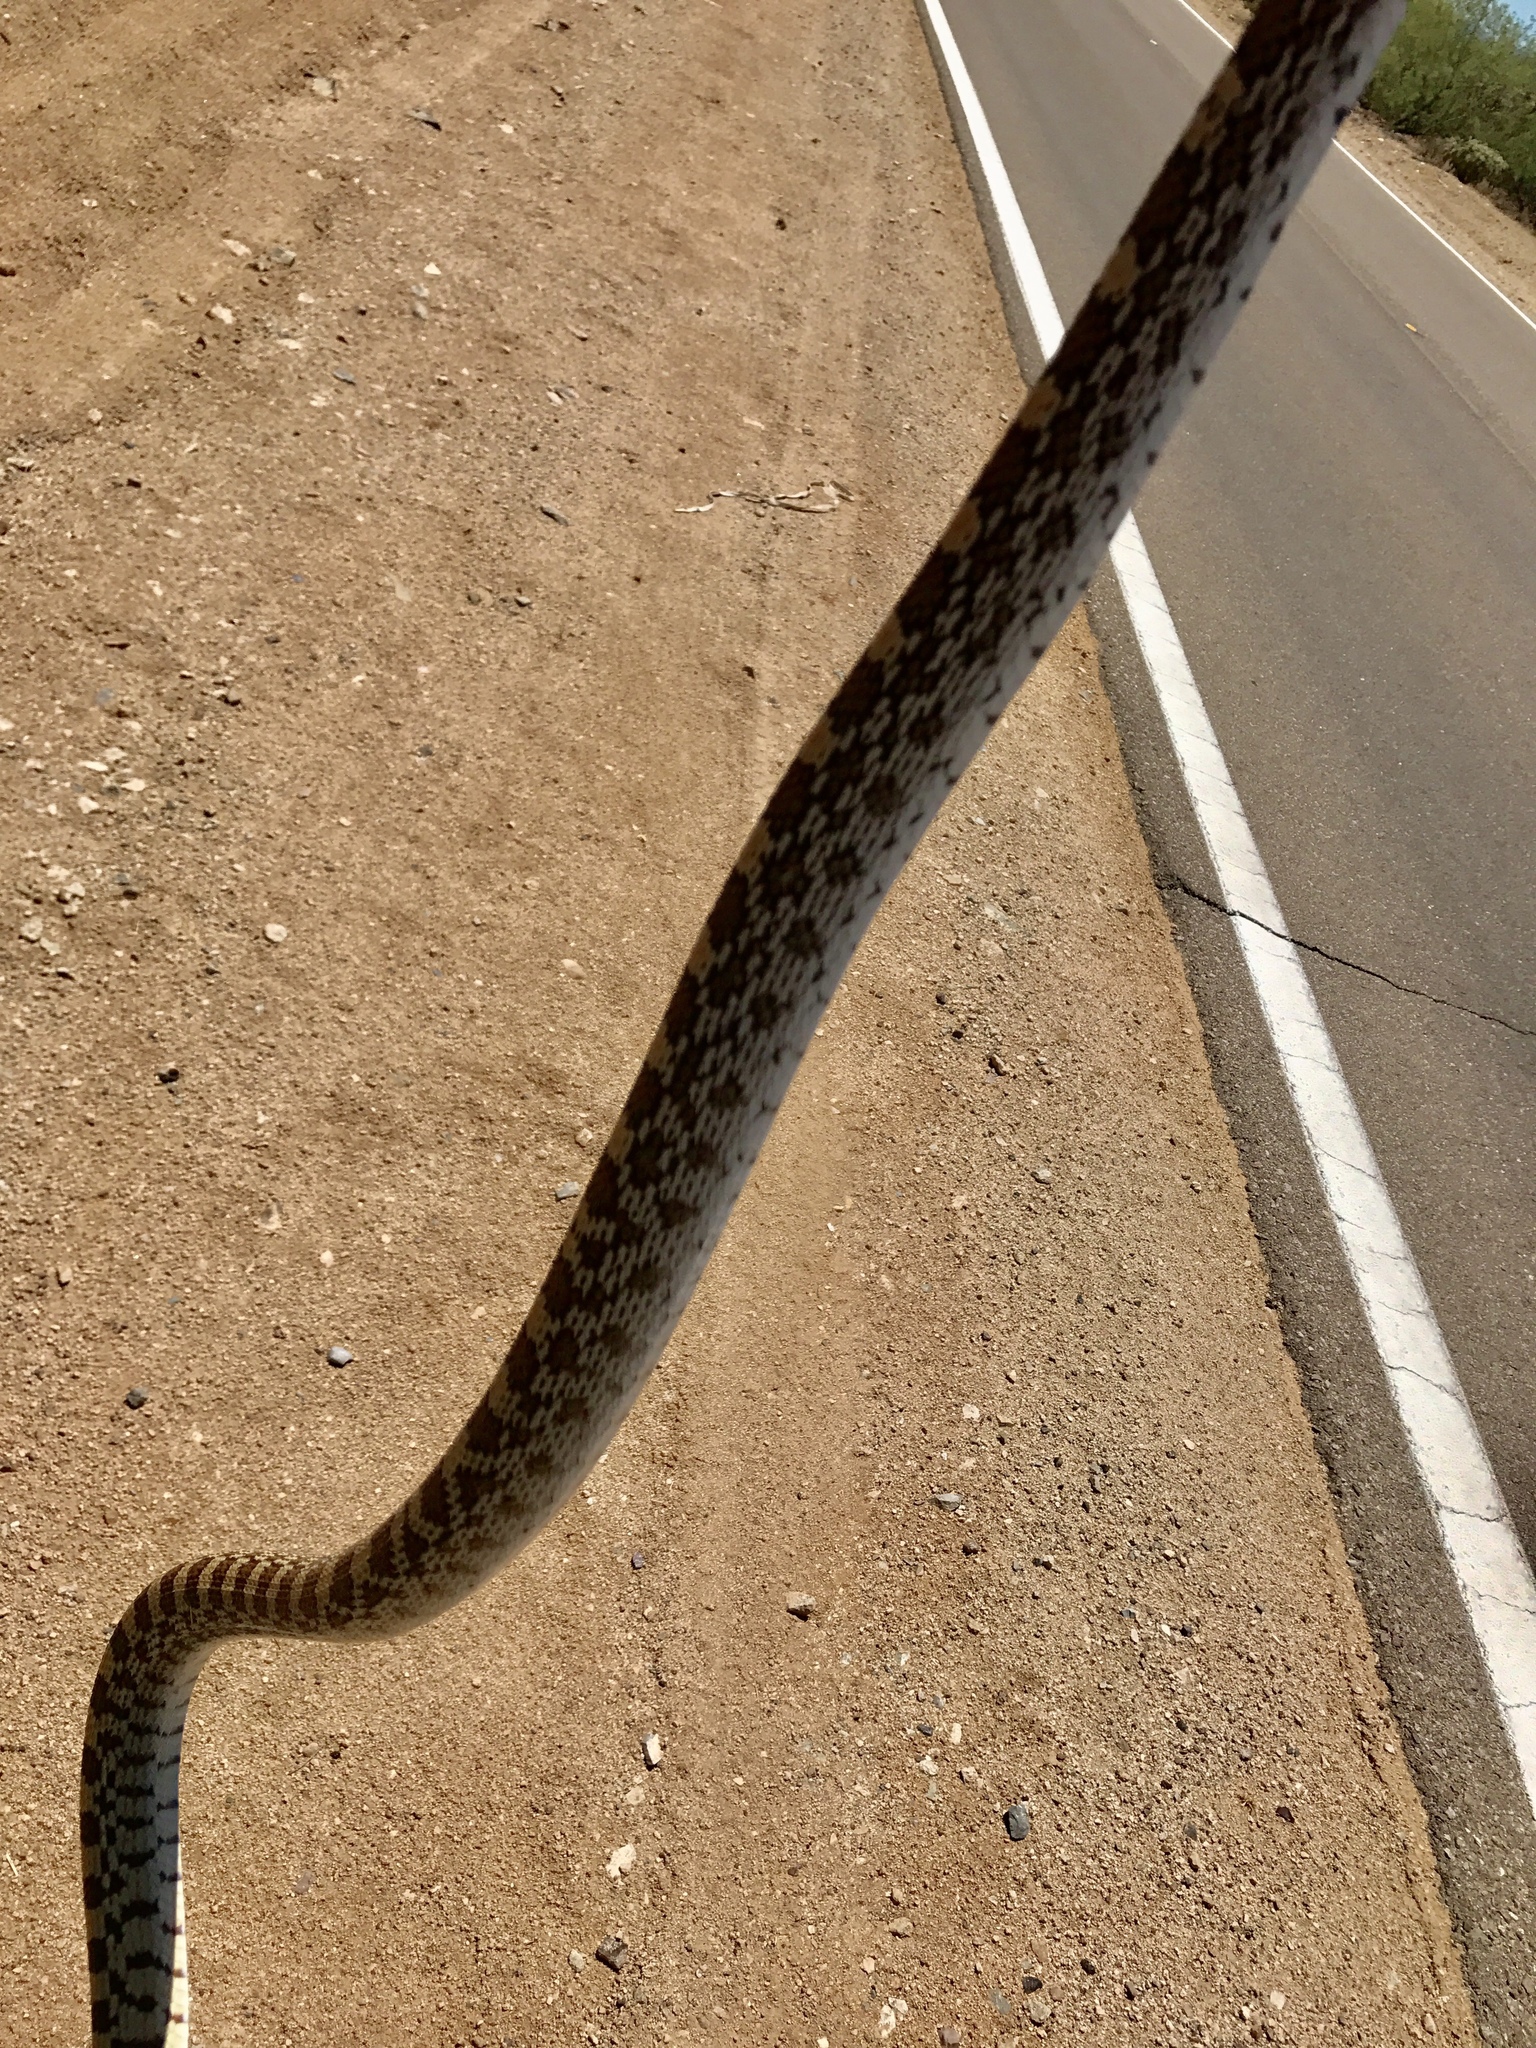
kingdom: Animalia
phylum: Chordata
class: Squamata
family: Colubridae
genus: Pituophis
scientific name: Pituophis catenifer
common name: Gopher snake
